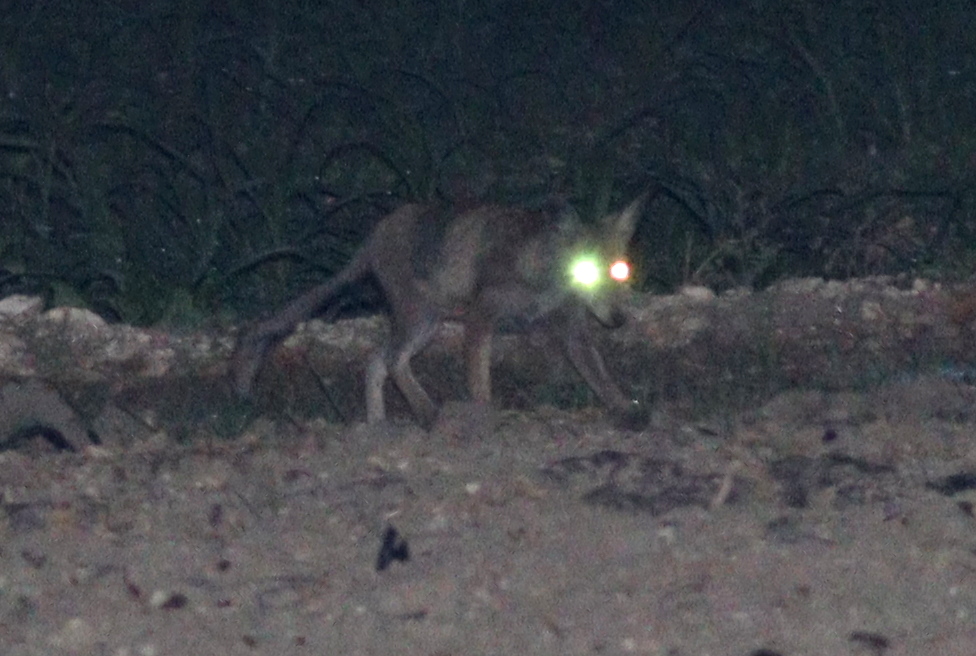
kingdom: Animalia
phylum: Chordata
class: Mammalia
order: Carnivora
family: Canidae
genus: Vulpes
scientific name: Vulpes vulpes
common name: Red fox
